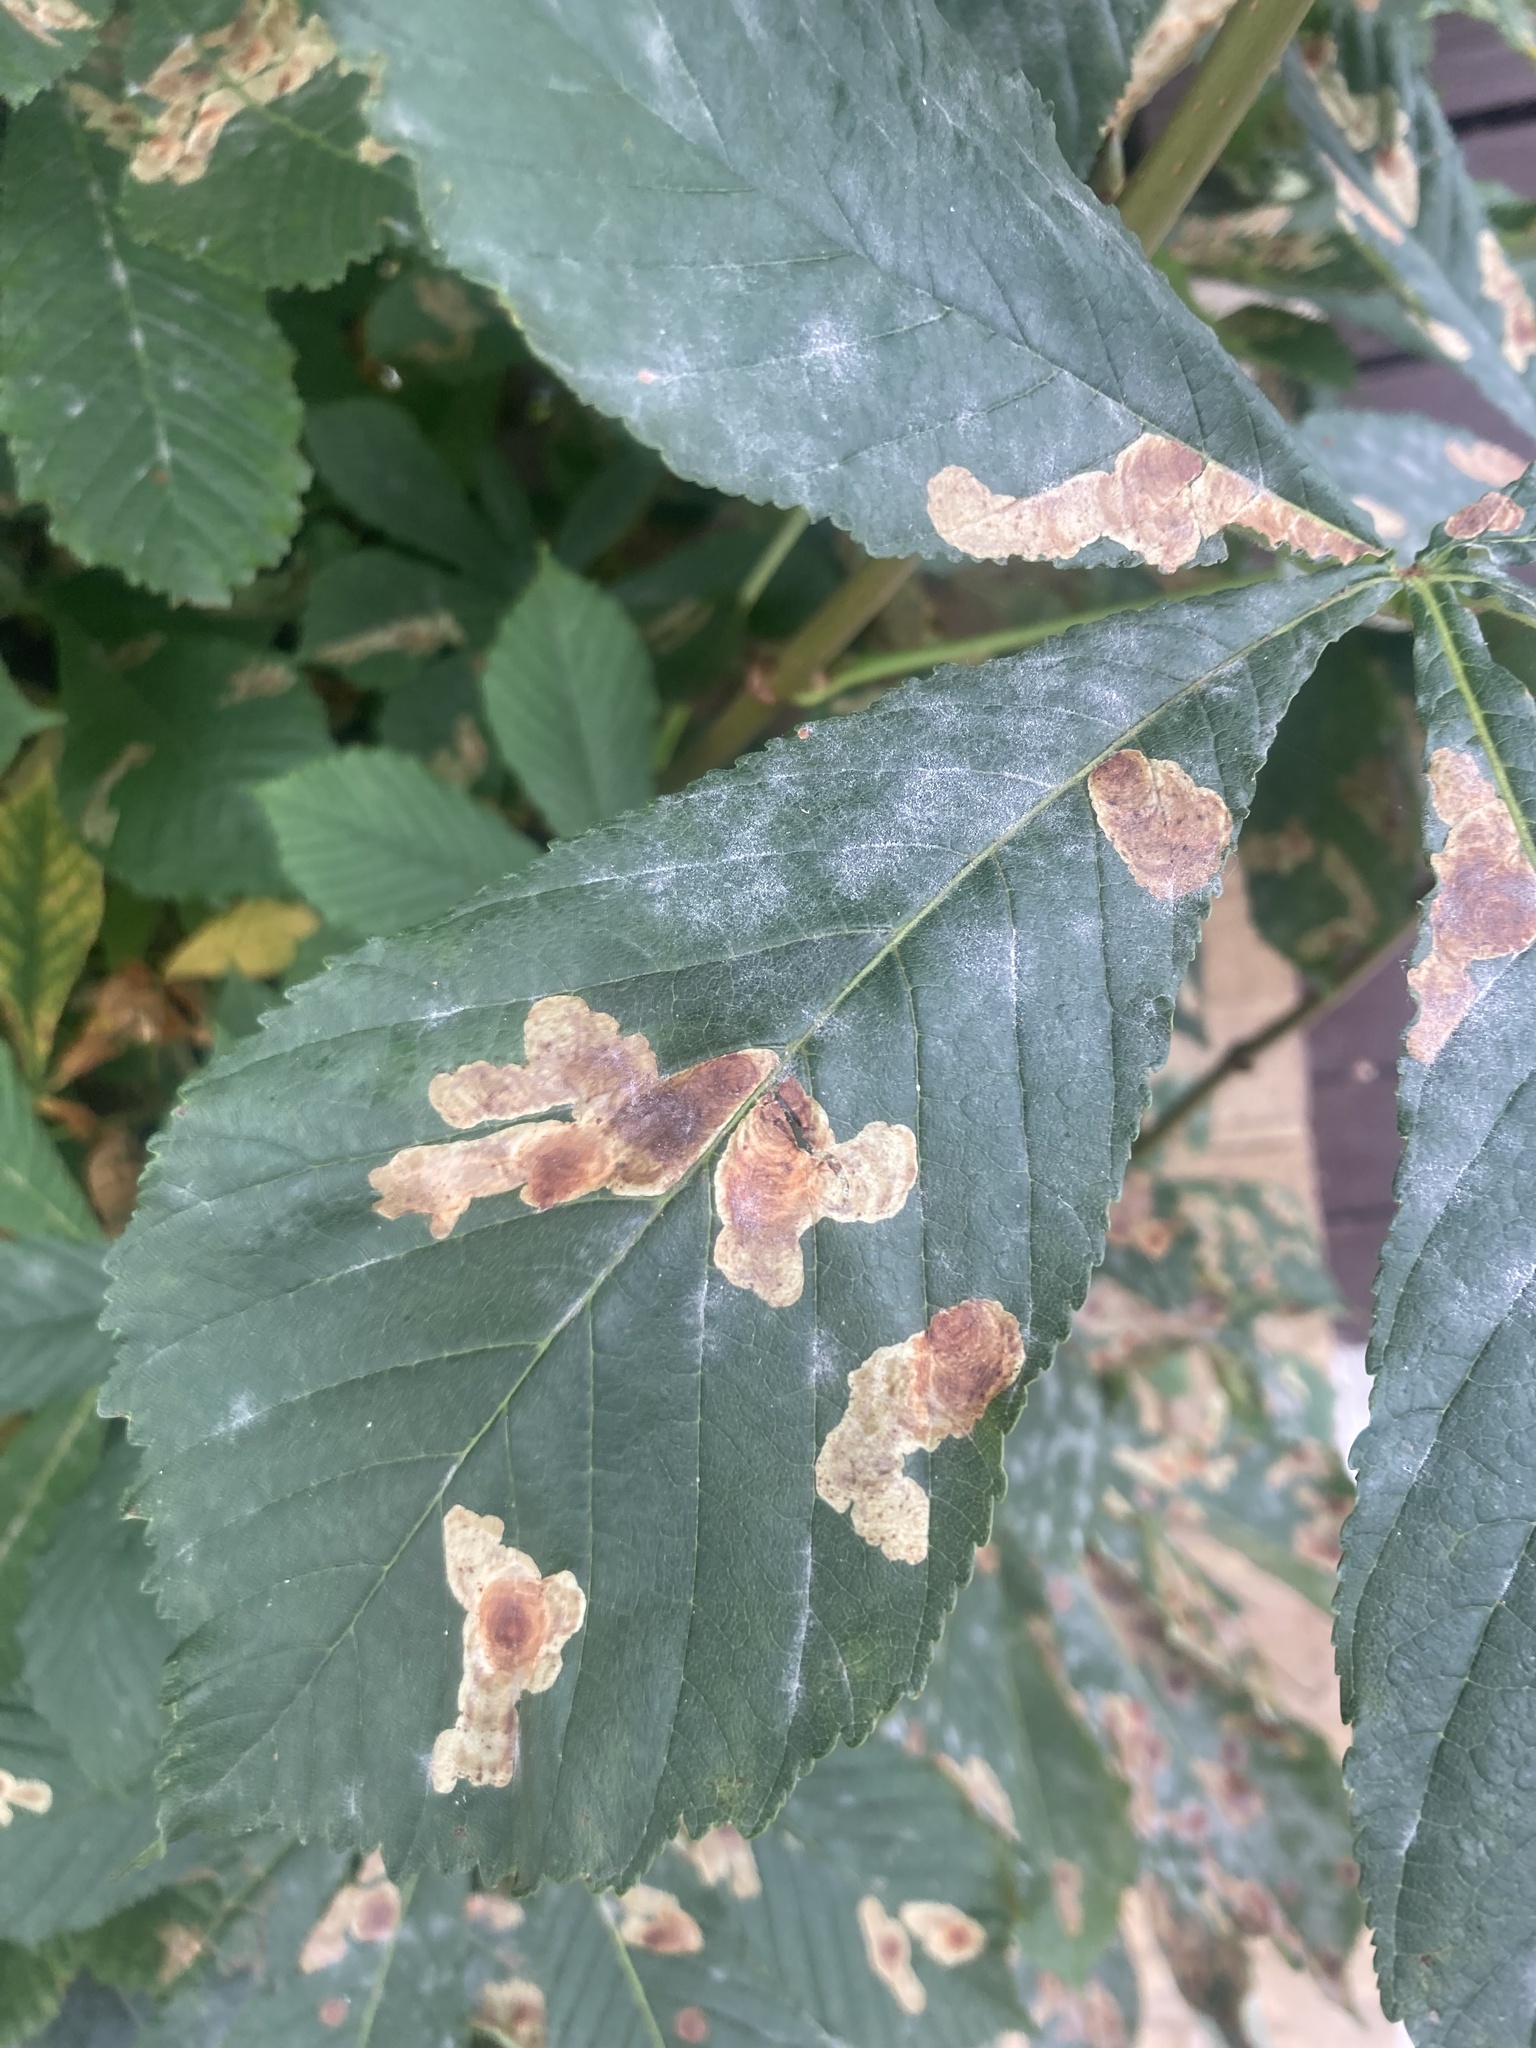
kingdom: Animalia
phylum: Arthropoda
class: Insecta
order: Lepidoptera
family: Gracillariidae
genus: Cameraria
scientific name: Cameraria ohridella
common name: Horse-chestnut leaf-miner
